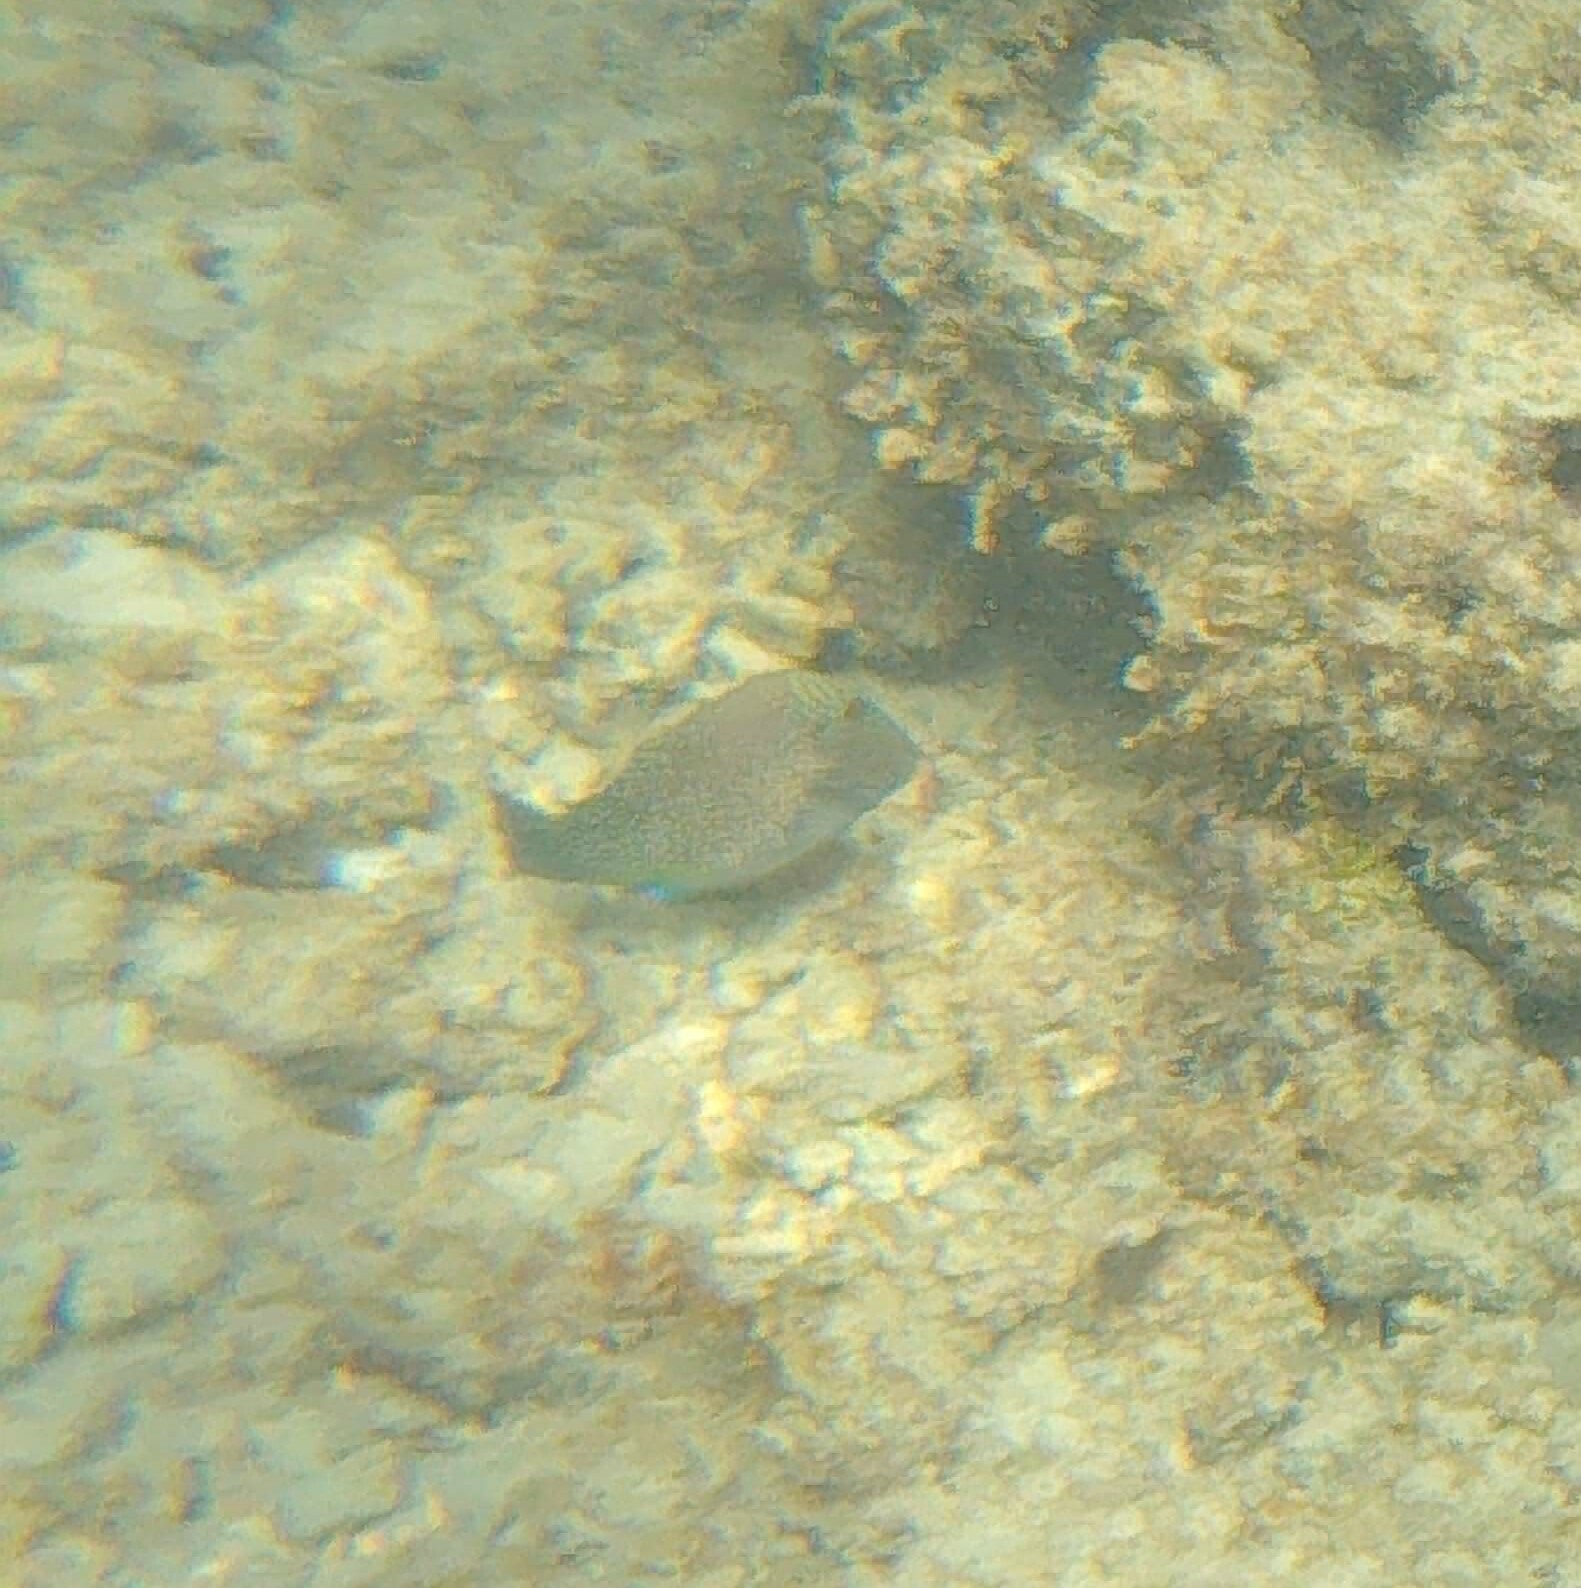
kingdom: Animalia
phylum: Chordata
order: Tetraodontiformes
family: Tetraodontidae
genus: Canthigaster
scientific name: Canthigaster amboinensis
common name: Ambon pufferfish
